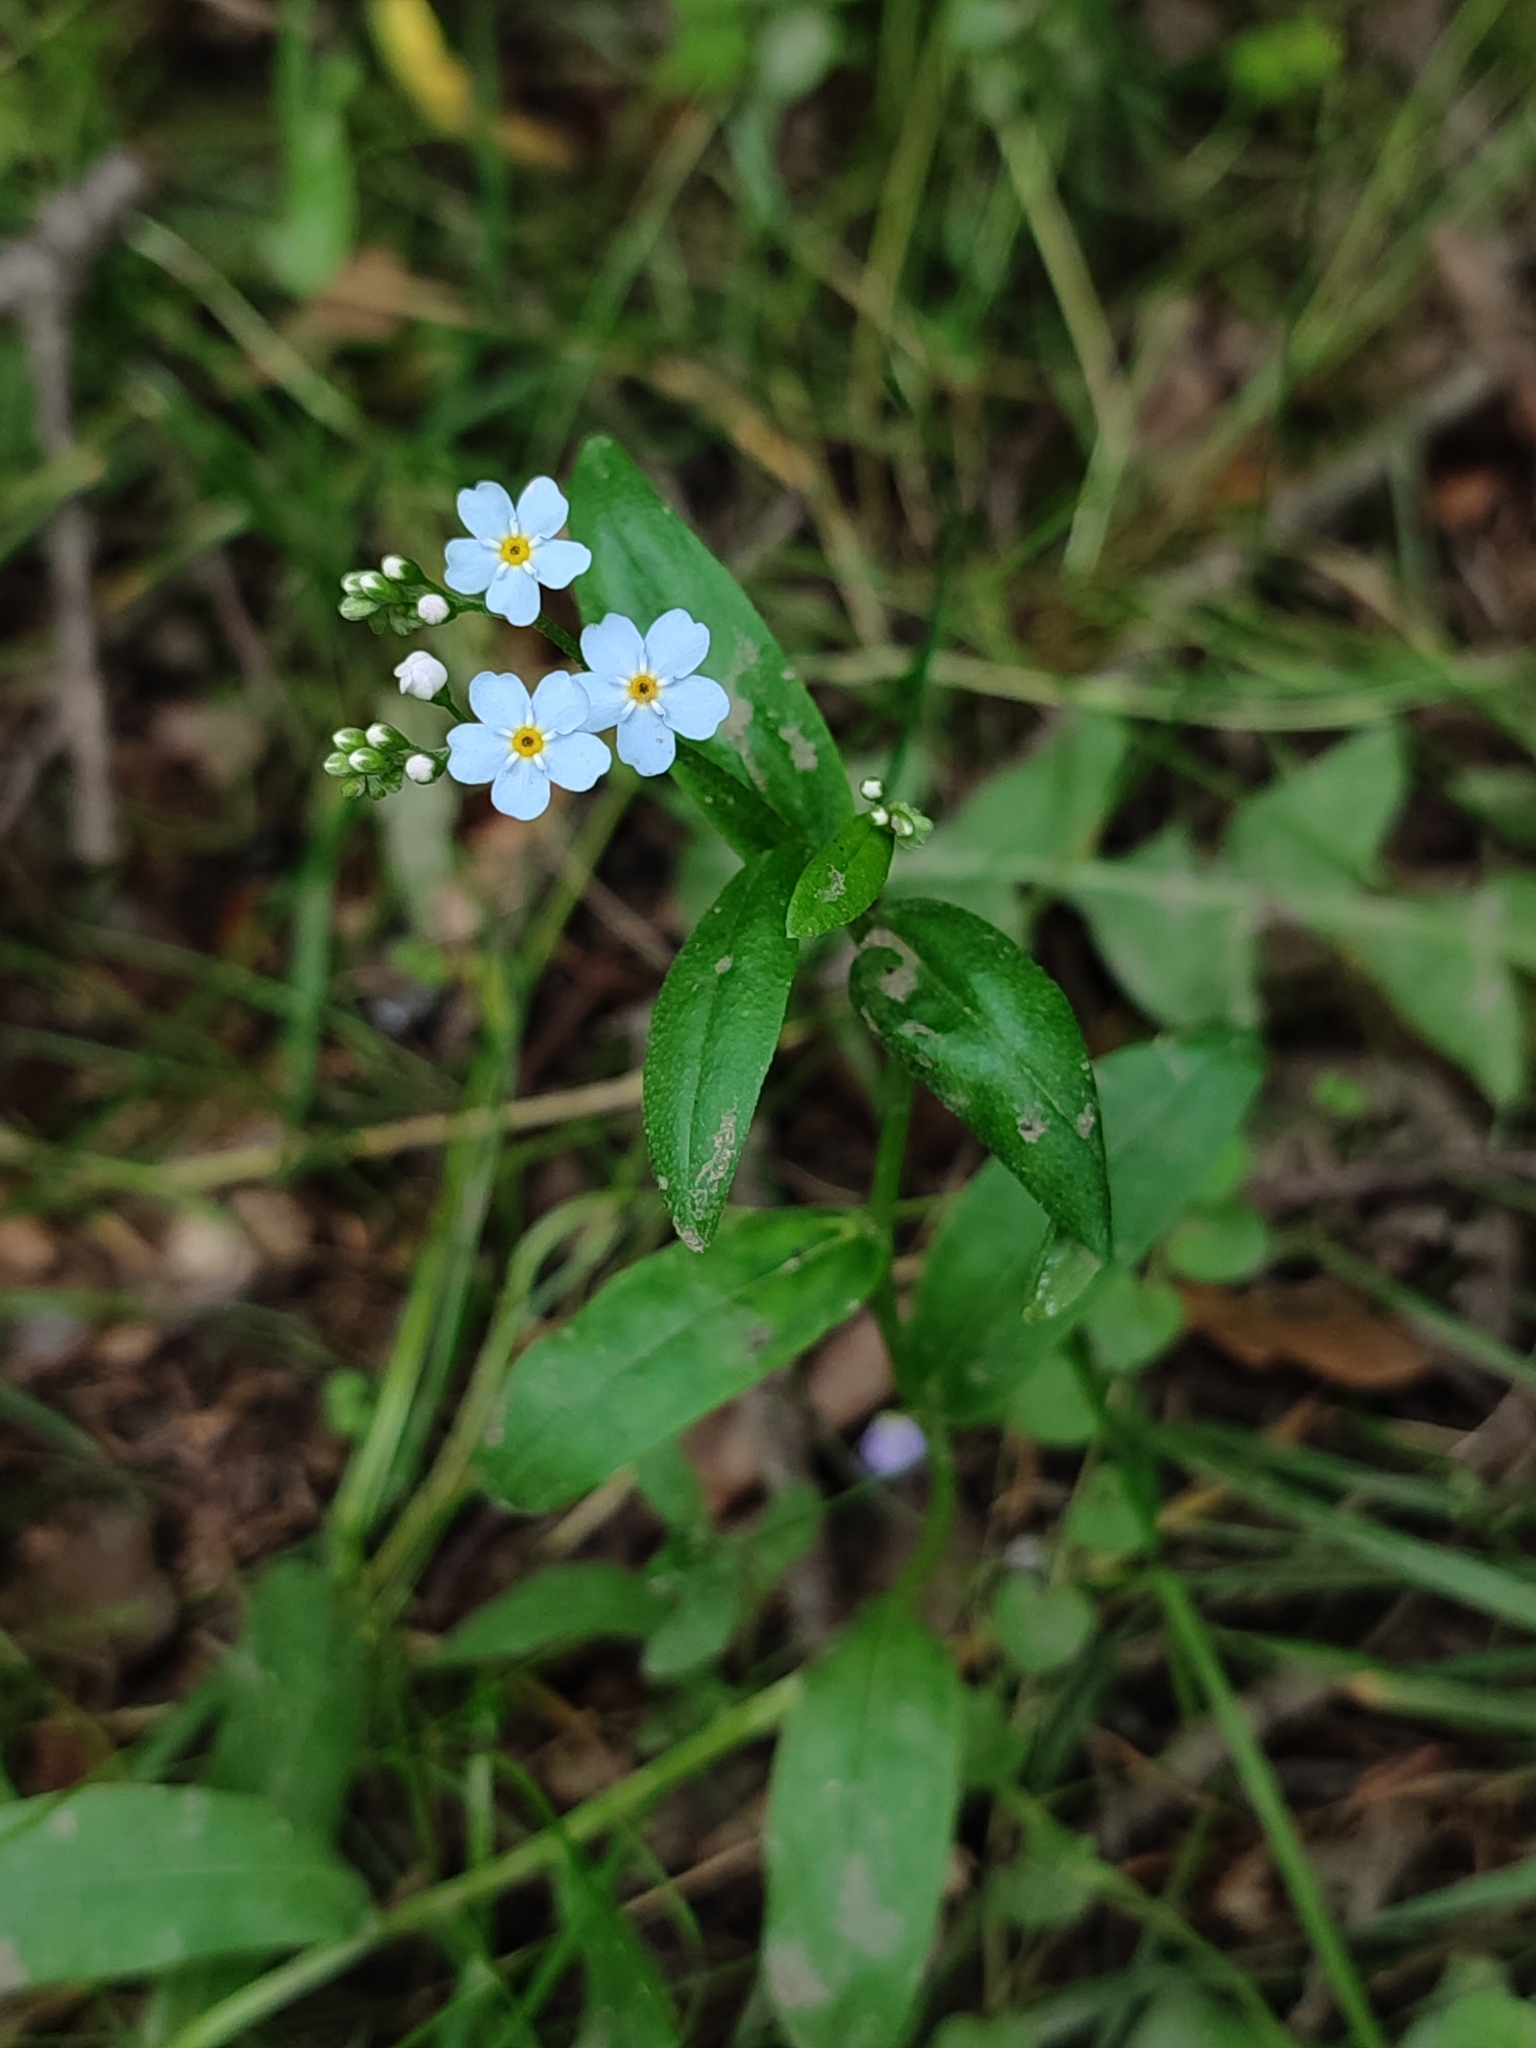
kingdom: Plantae
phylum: Tracheophyta
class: Magnoliopsida
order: Boraginales
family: Boraginaceae
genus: Myosotis
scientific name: Myosotis scorpioides
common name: Water forget-me-not
